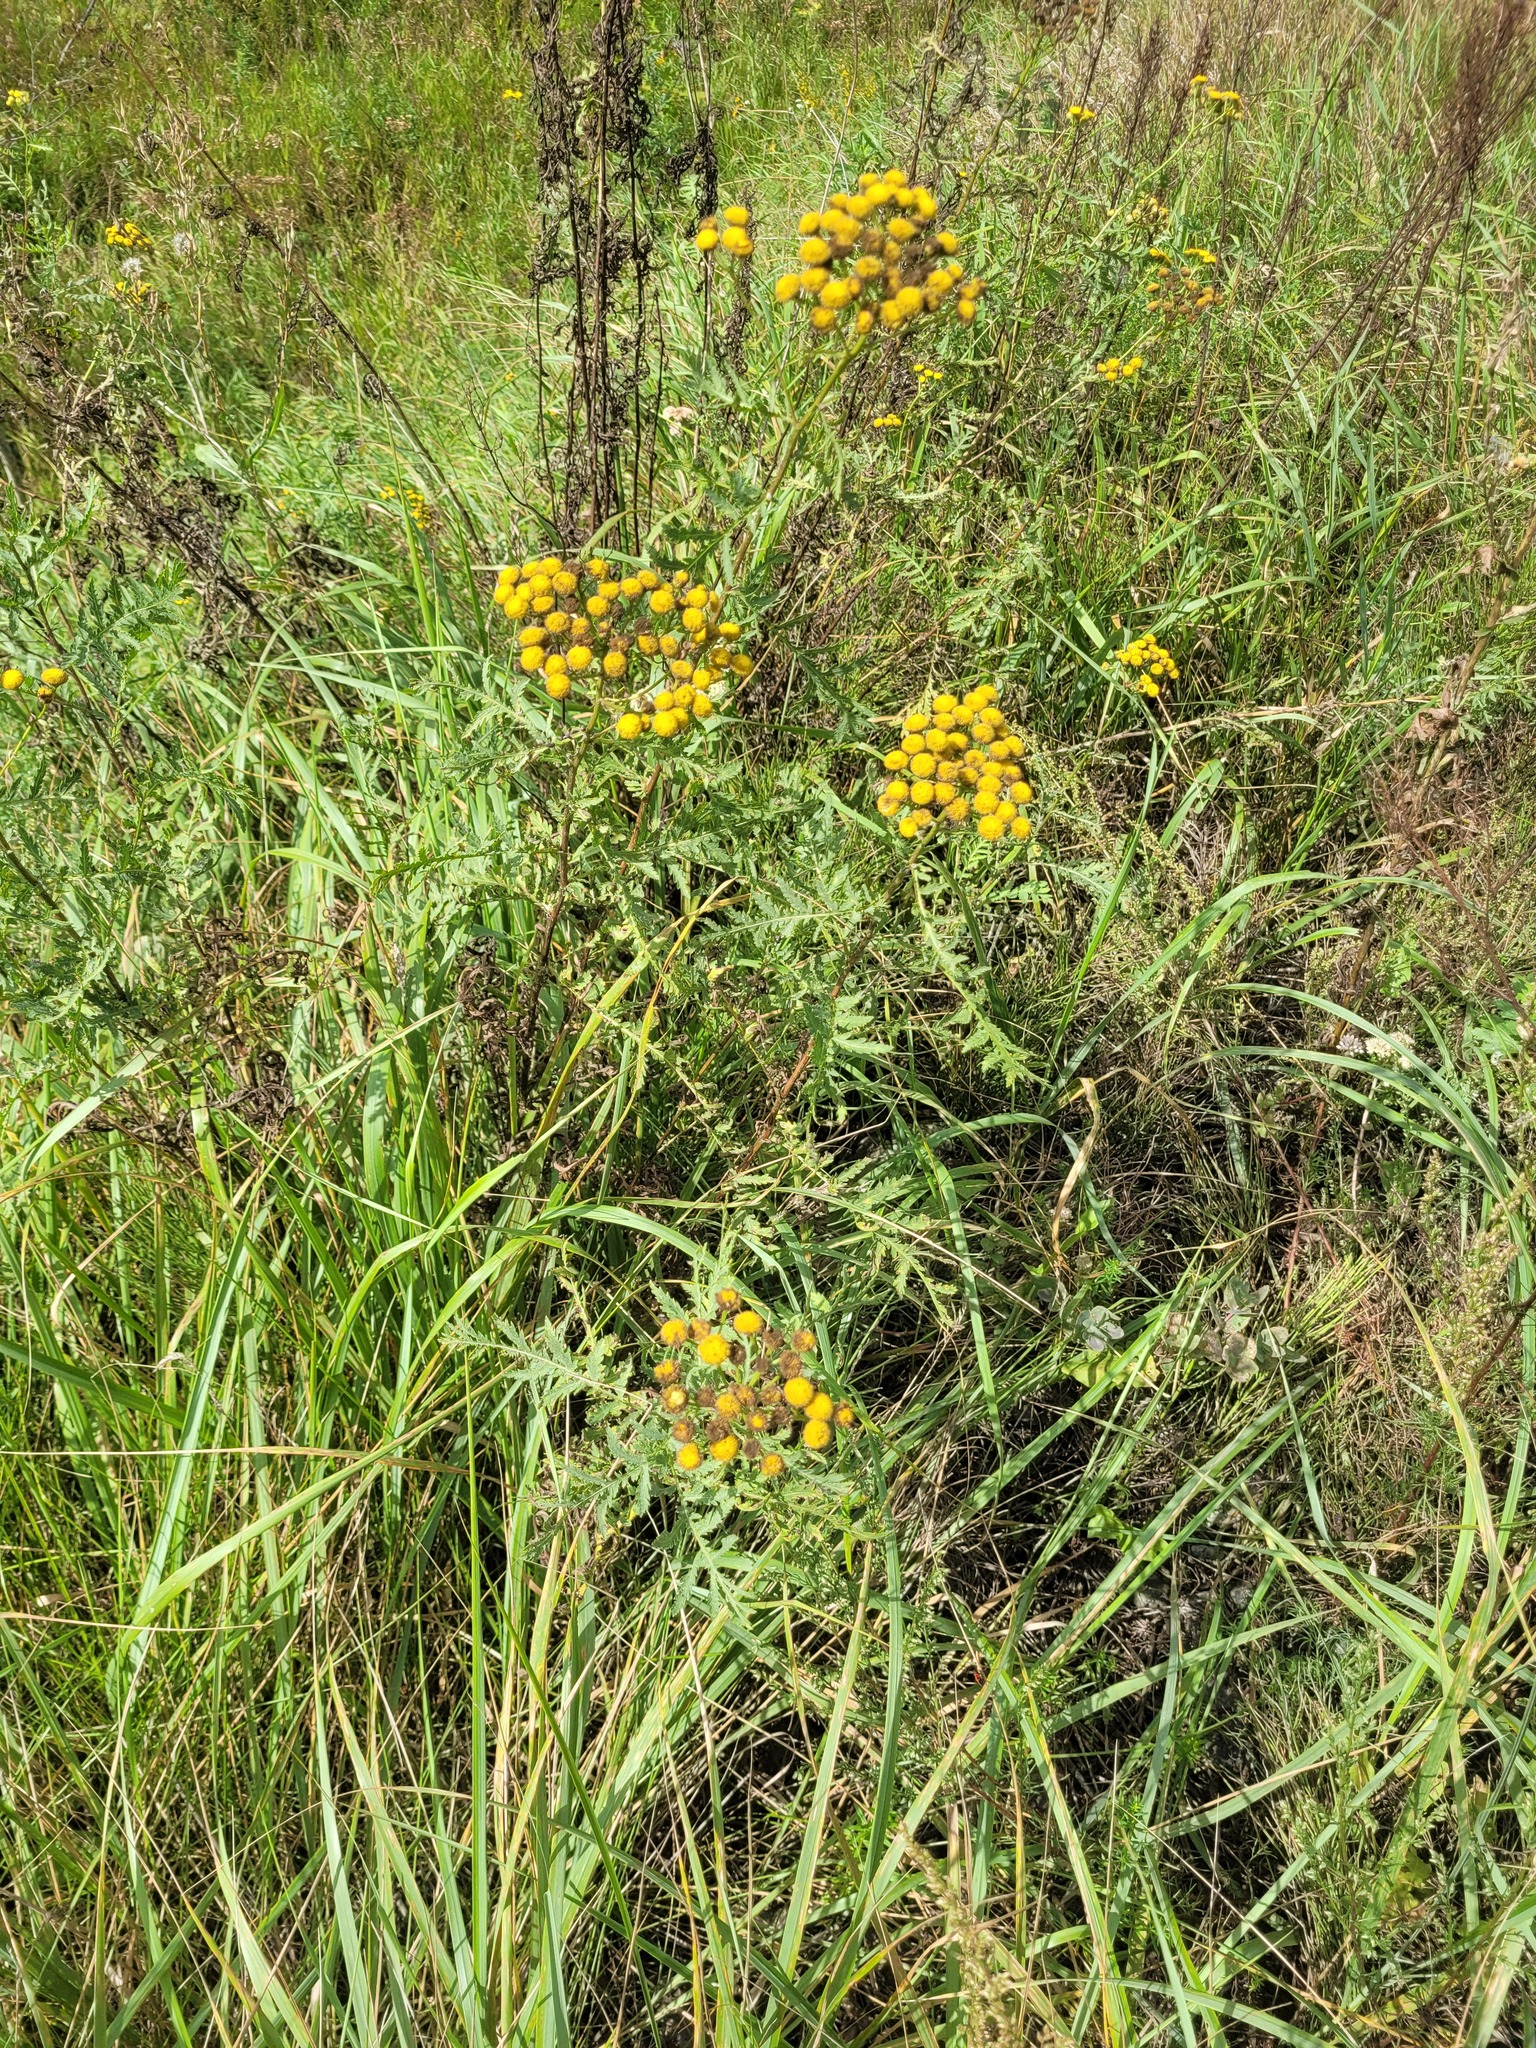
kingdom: Plantae
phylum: Tracheophyta
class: Magnoliopsida
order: Asterales
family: Asteraceae
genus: Tanacetum
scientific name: Tanacetum vulgare
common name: Common tansy
